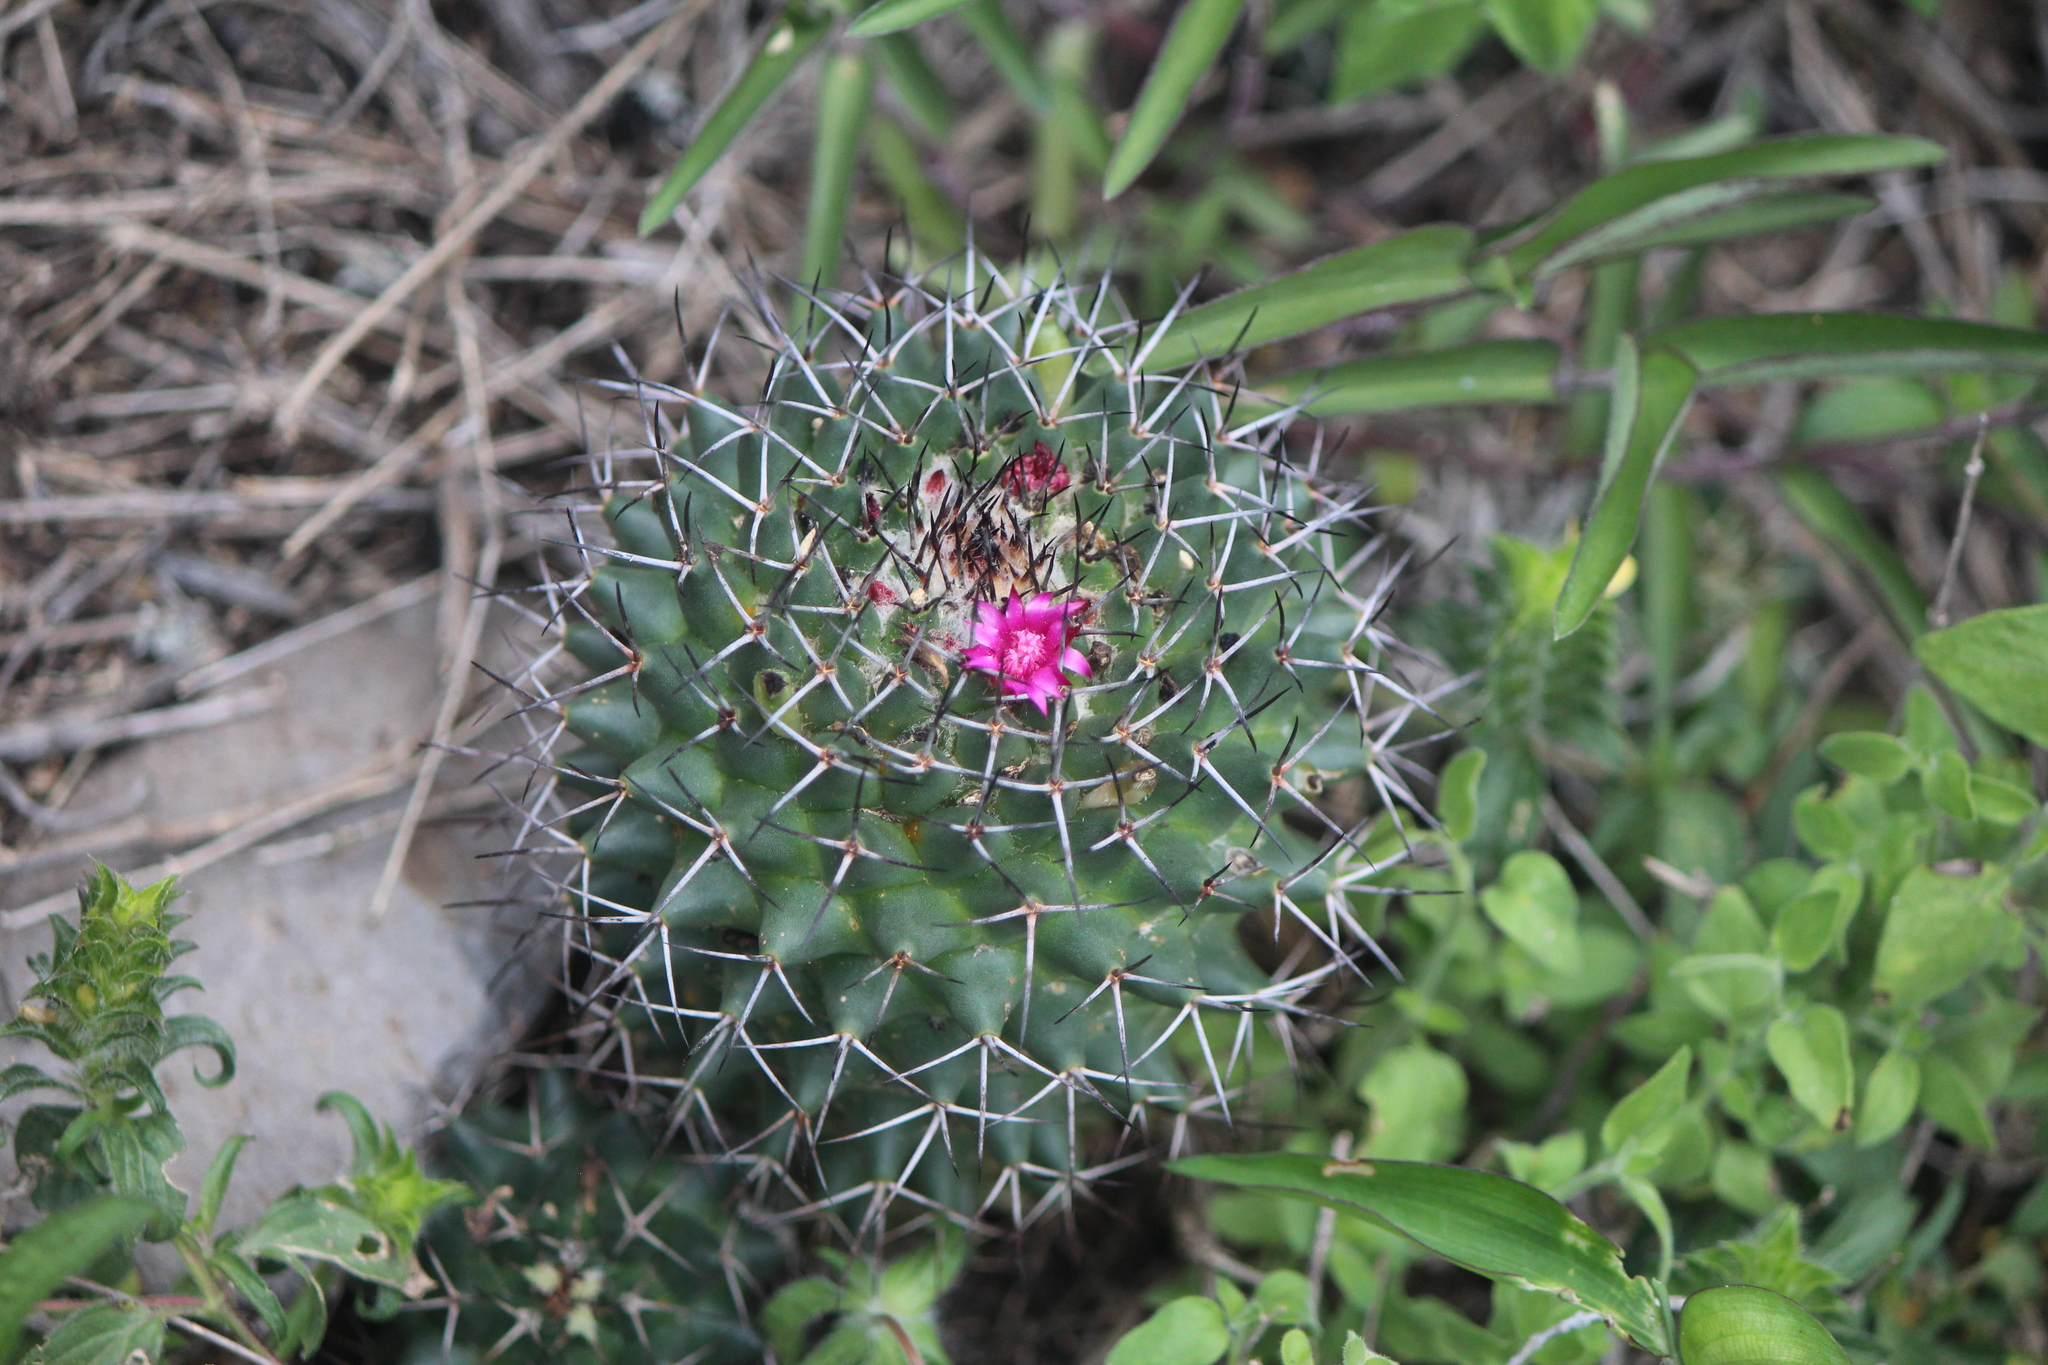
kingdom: Plantae
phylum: Tracheophyta
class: Magnoliopsida
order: Caryophyllales
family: Cactaceae
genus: Mammillaria
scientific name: Mammillaria polythele
